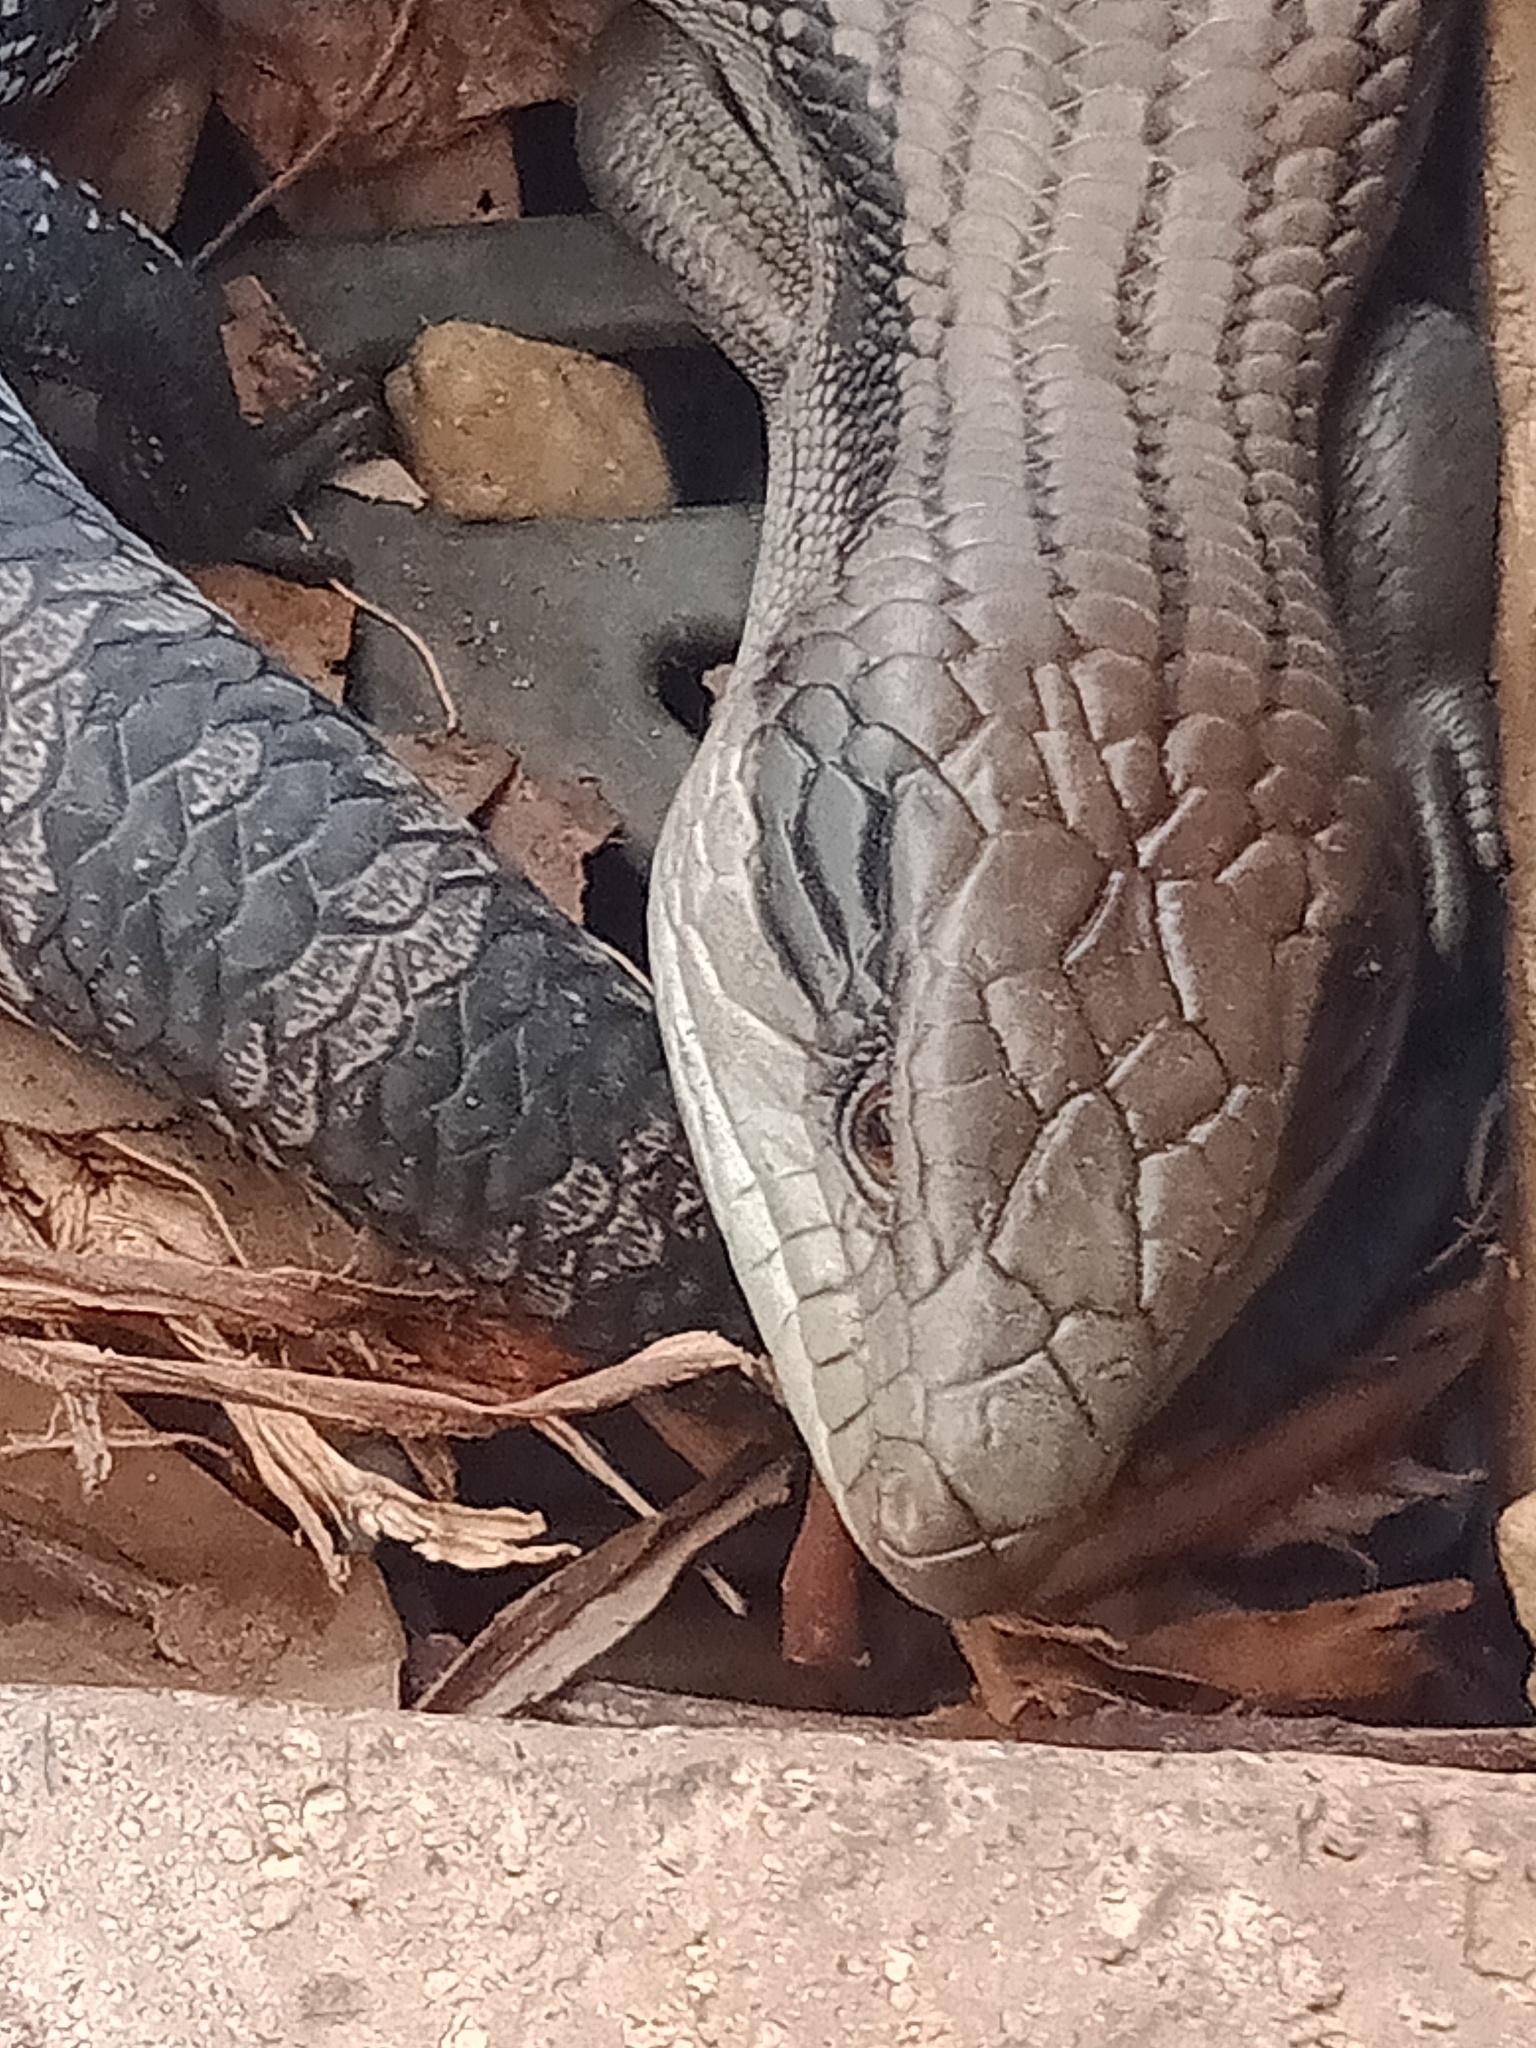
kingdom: Animalia
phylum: Chordata
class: Squamata
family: Scincidae
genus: Tiliqua
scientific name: Tiliqua scincoides
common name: Common bluetongue
